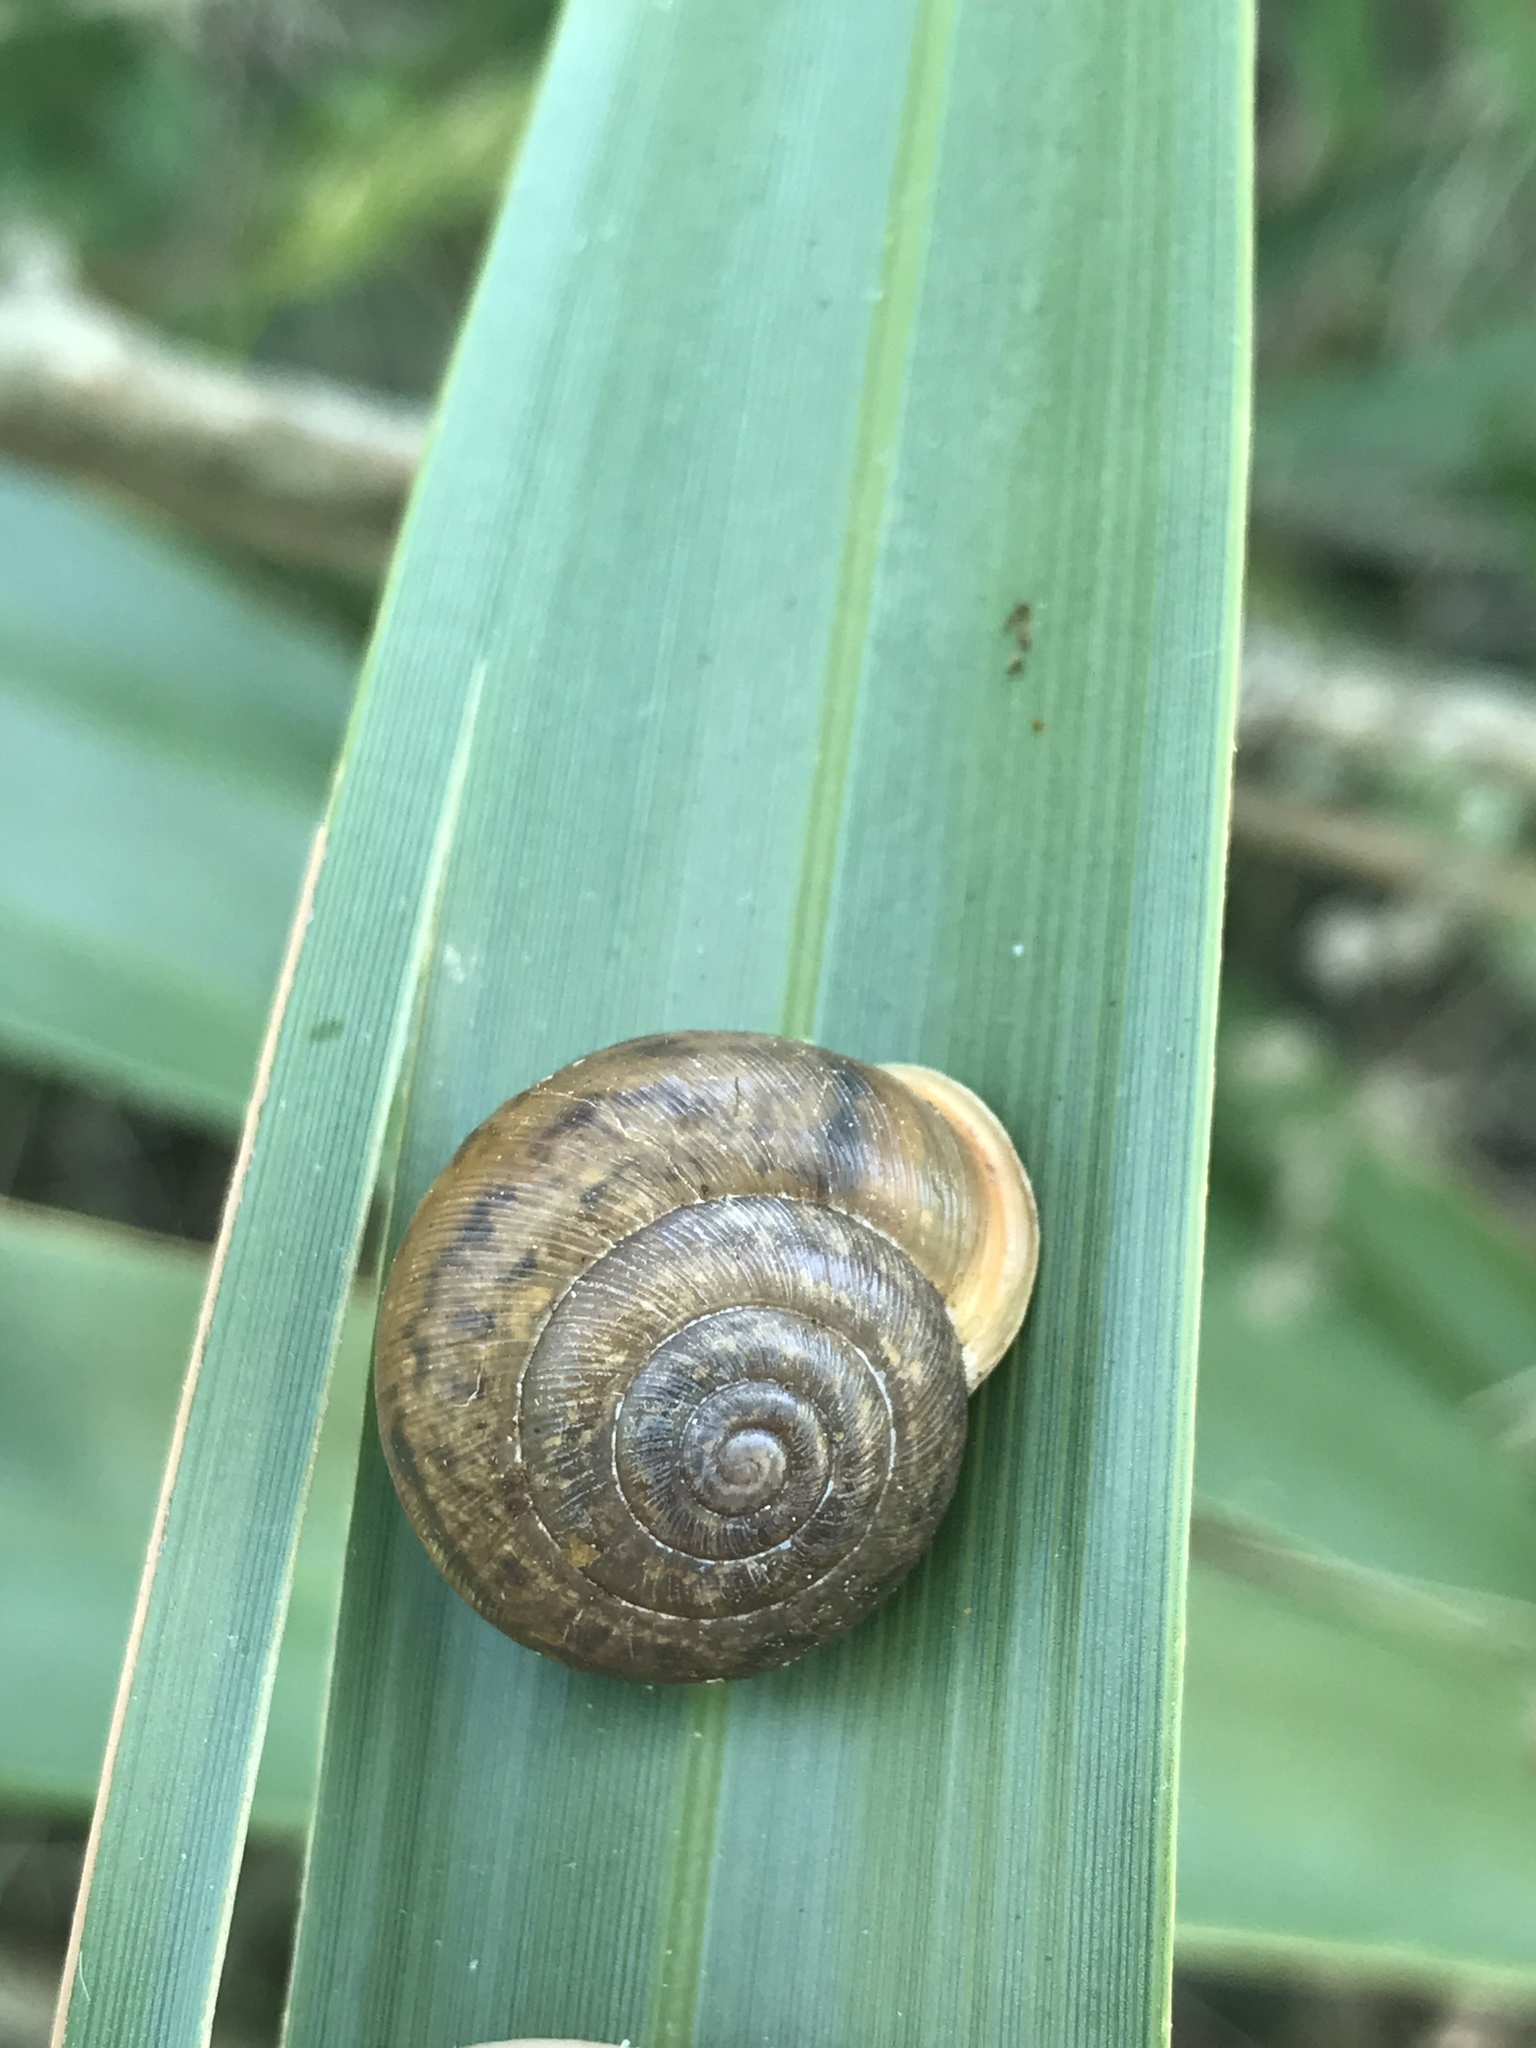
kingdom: Animalia
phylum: Mollusca
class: Gastropoda
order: Stylommatophora
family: Polygyridae
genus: Mesodon
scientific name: Mesodon thyroidus
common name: White-lip globe
